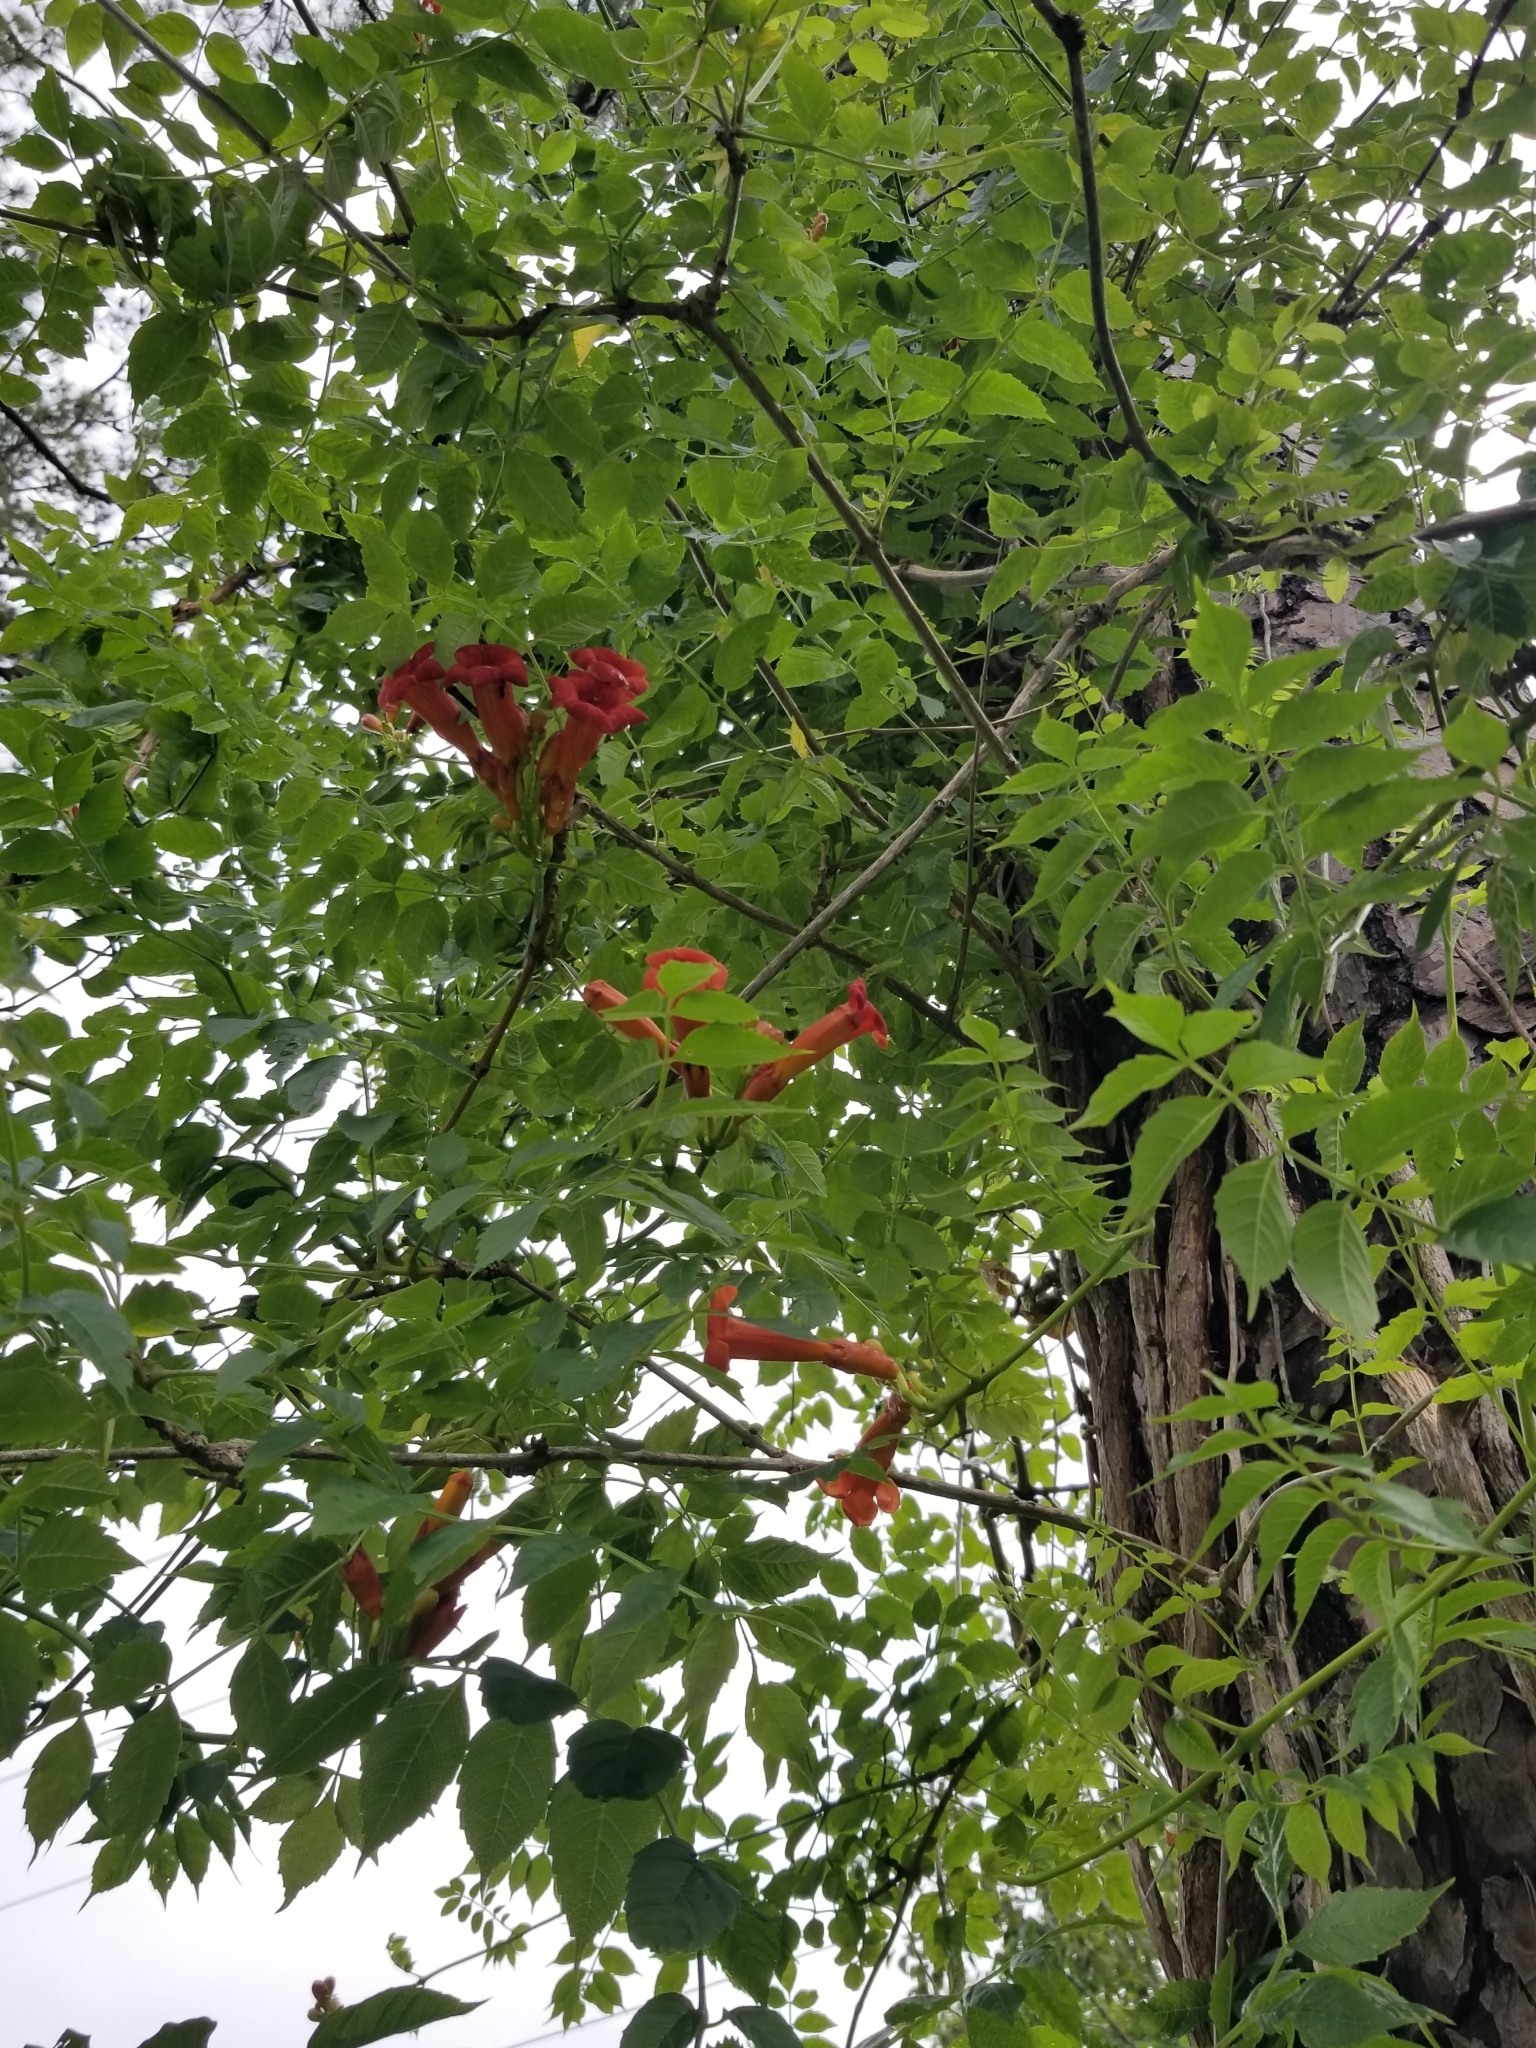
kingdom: Plantae
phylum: Tracheophyta
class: Magnoliopsida
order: Lamiales
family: Bignoniaceae
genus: Campsis
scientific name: Campsis radicans
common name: Trumpet-creeper
